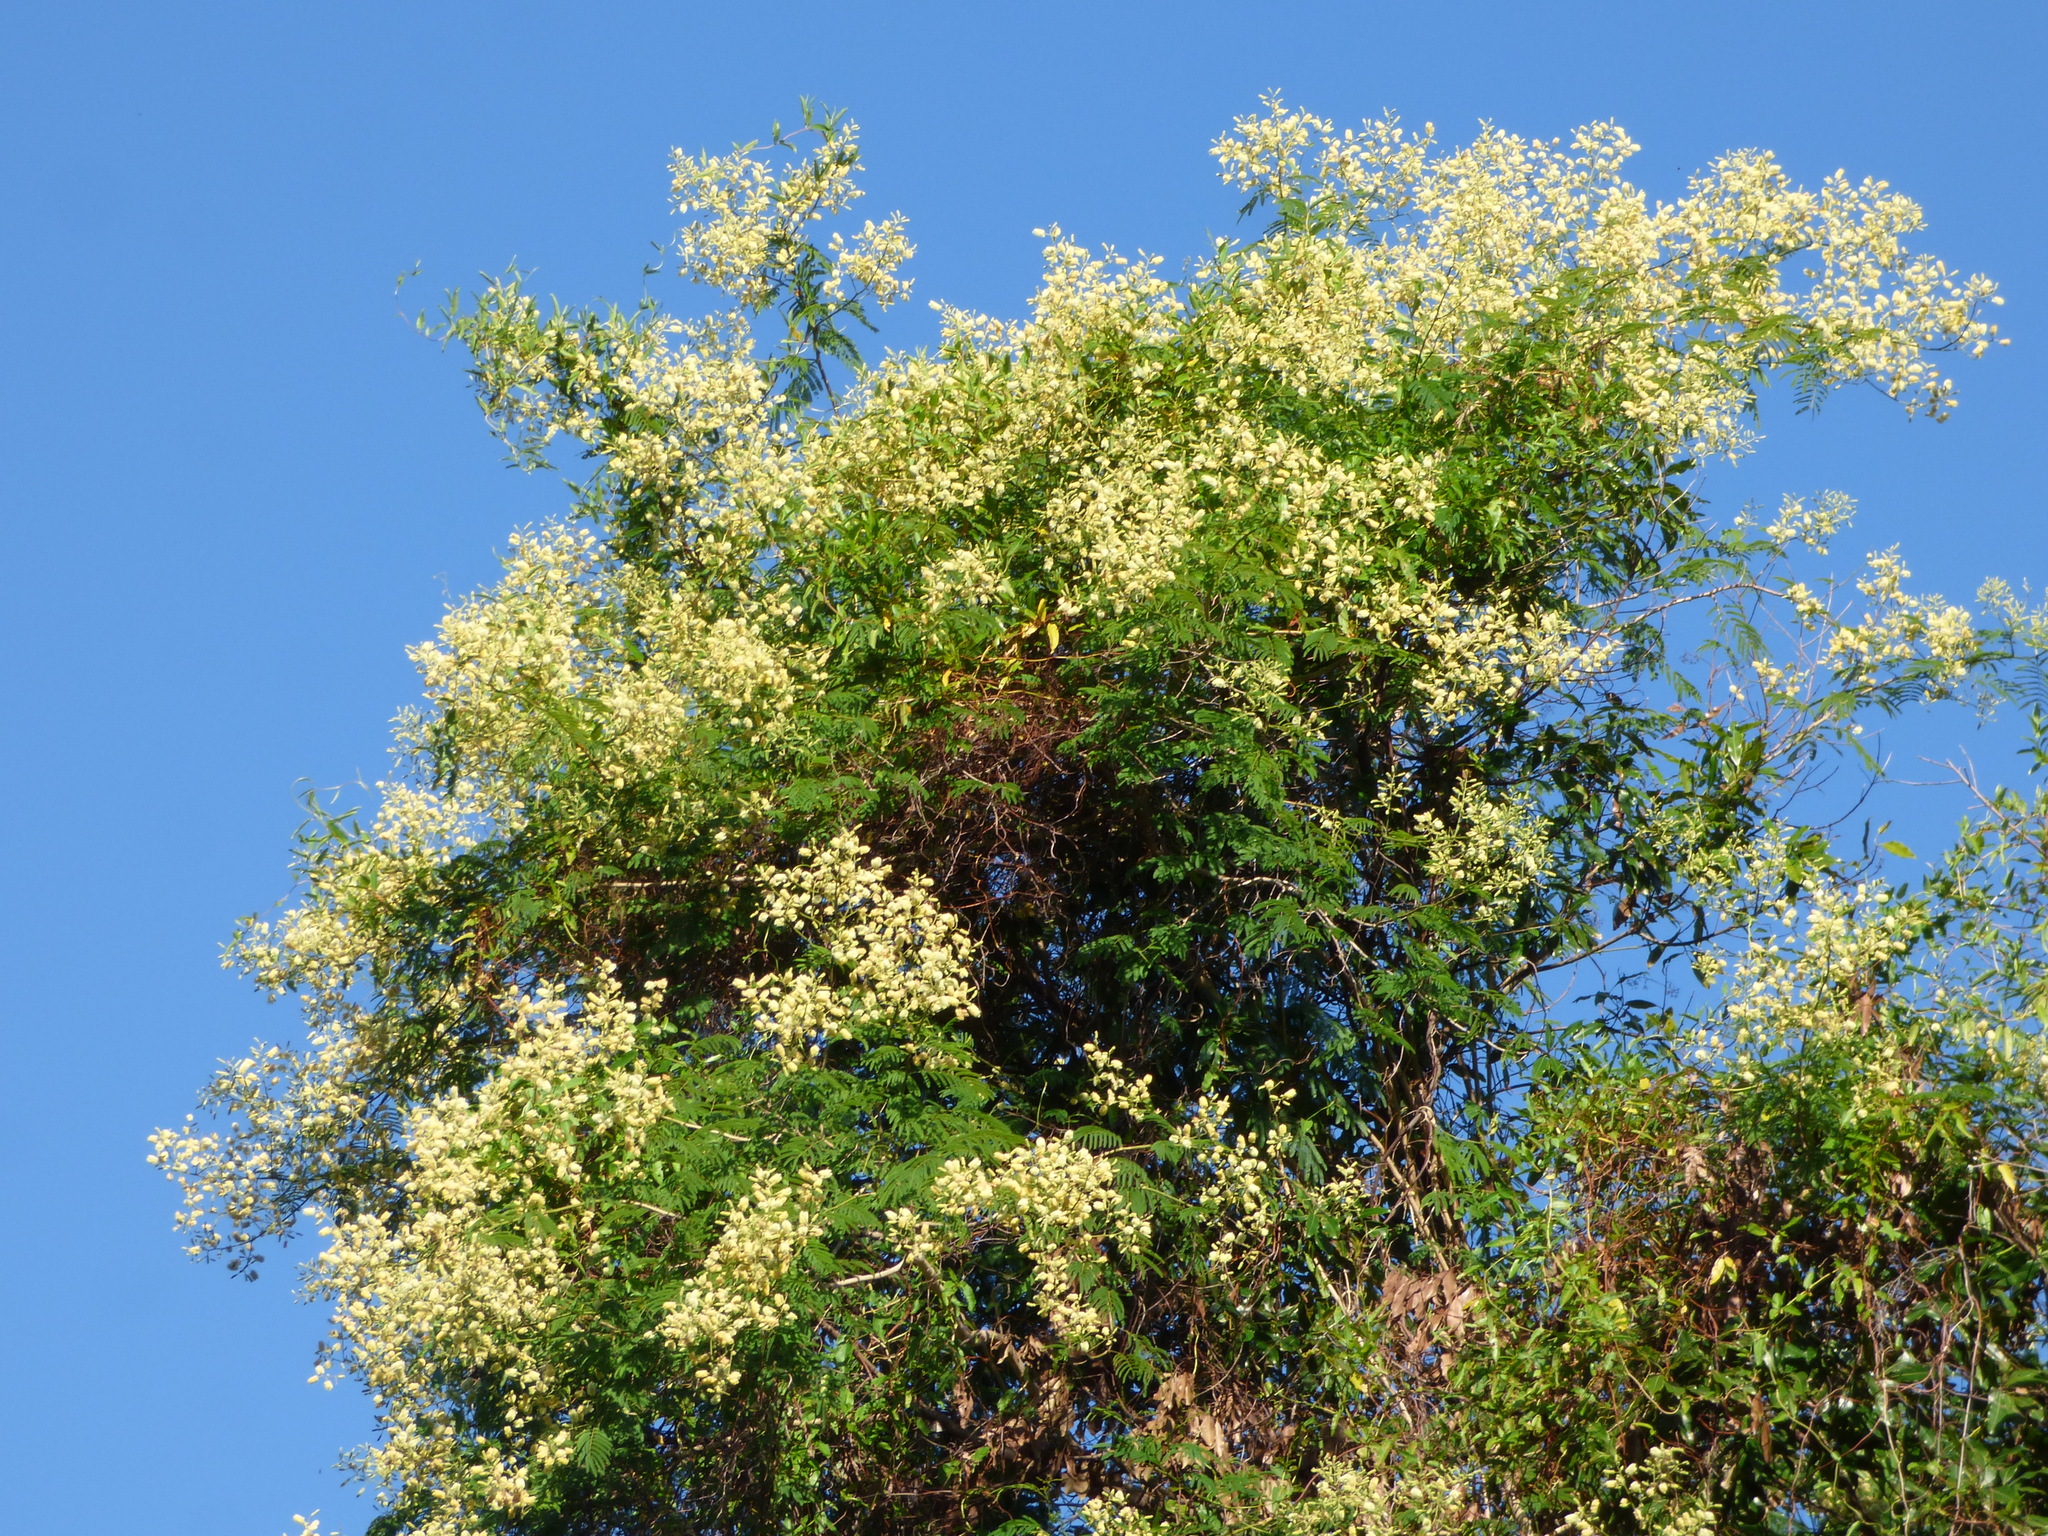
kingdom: Plantae
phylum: Tracheophyta
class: Magnoliopsida
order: Fabales
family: Fabaceae
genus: Senegalia
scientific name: Senegalia bonariensis
